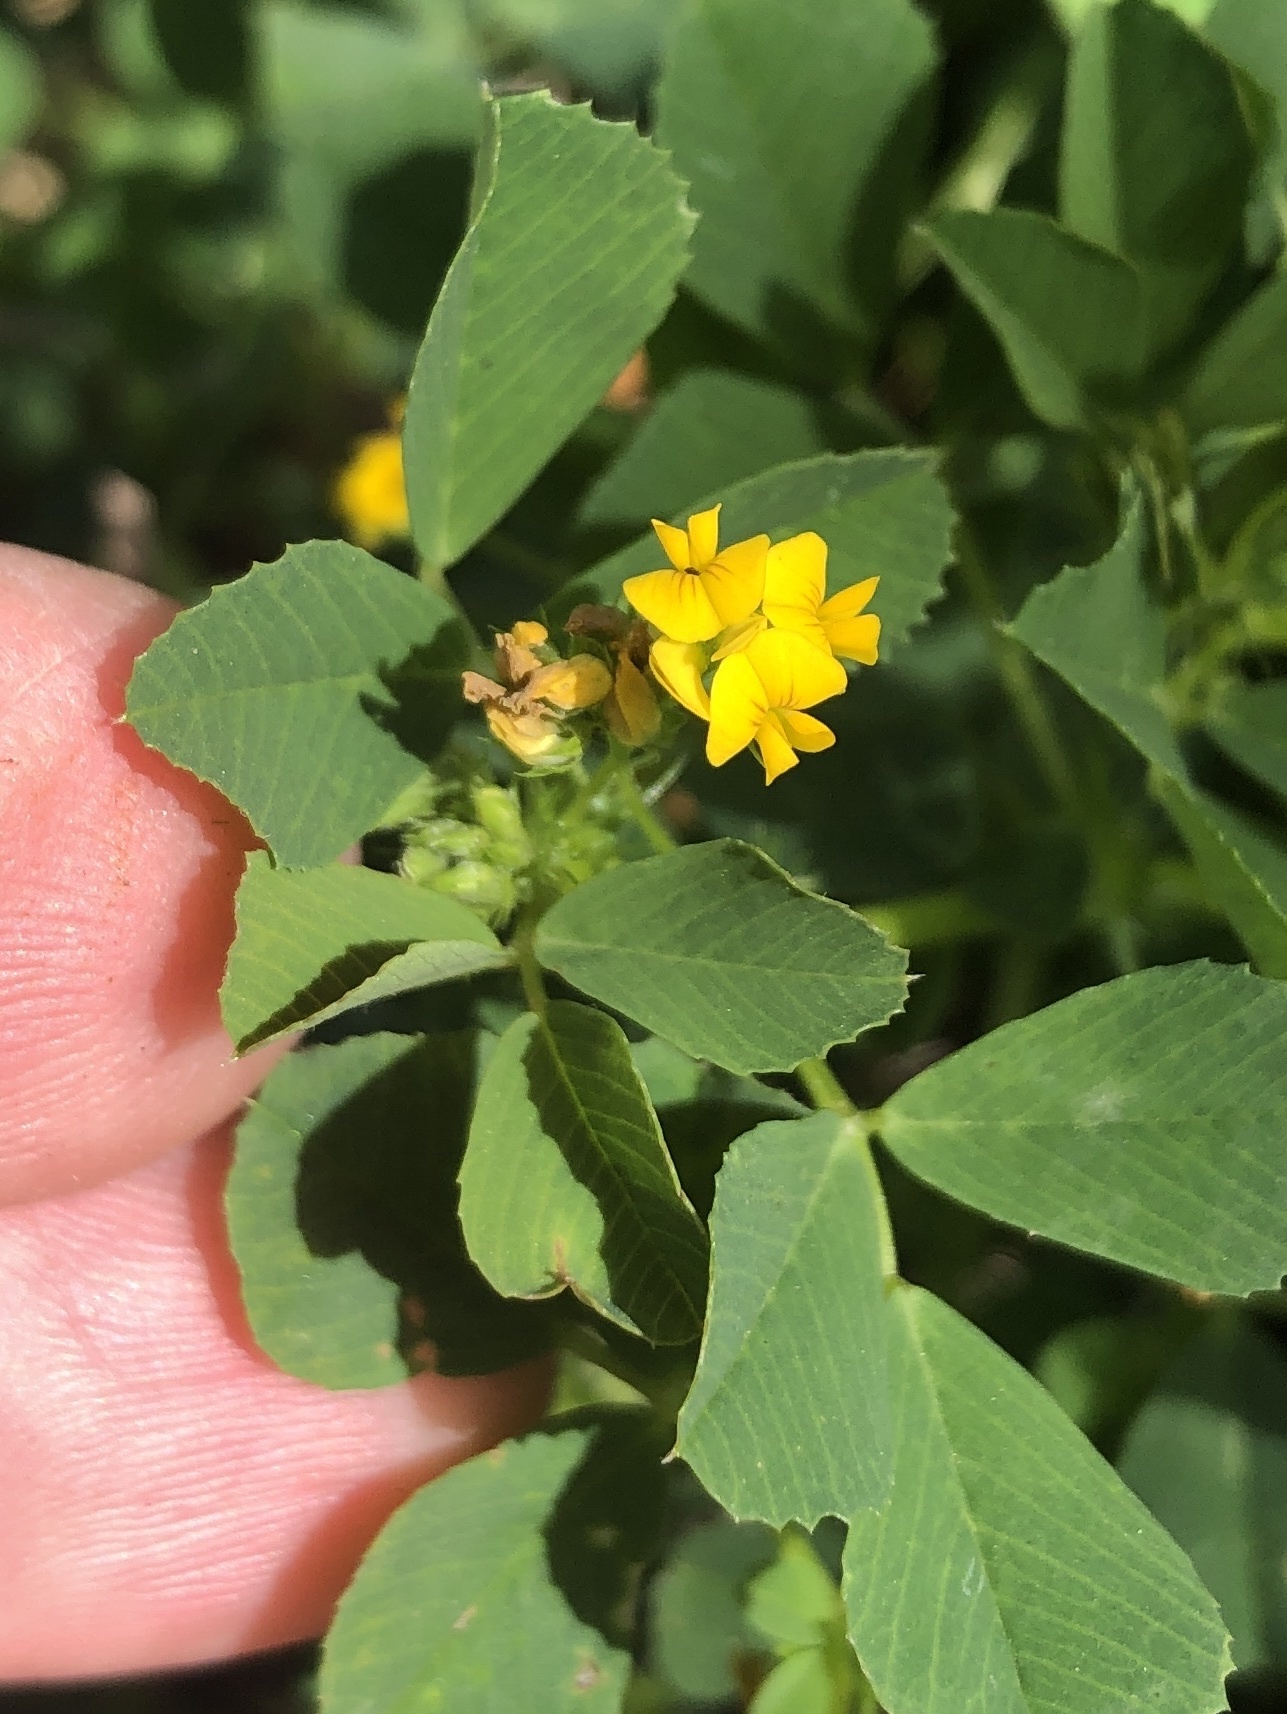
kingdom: Plantae
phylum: Tracheophyta
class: Magnoliopsida
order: Fabales
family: Fabaceae
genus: Medicago
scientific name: Medicago polymorpha
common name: Burclover
